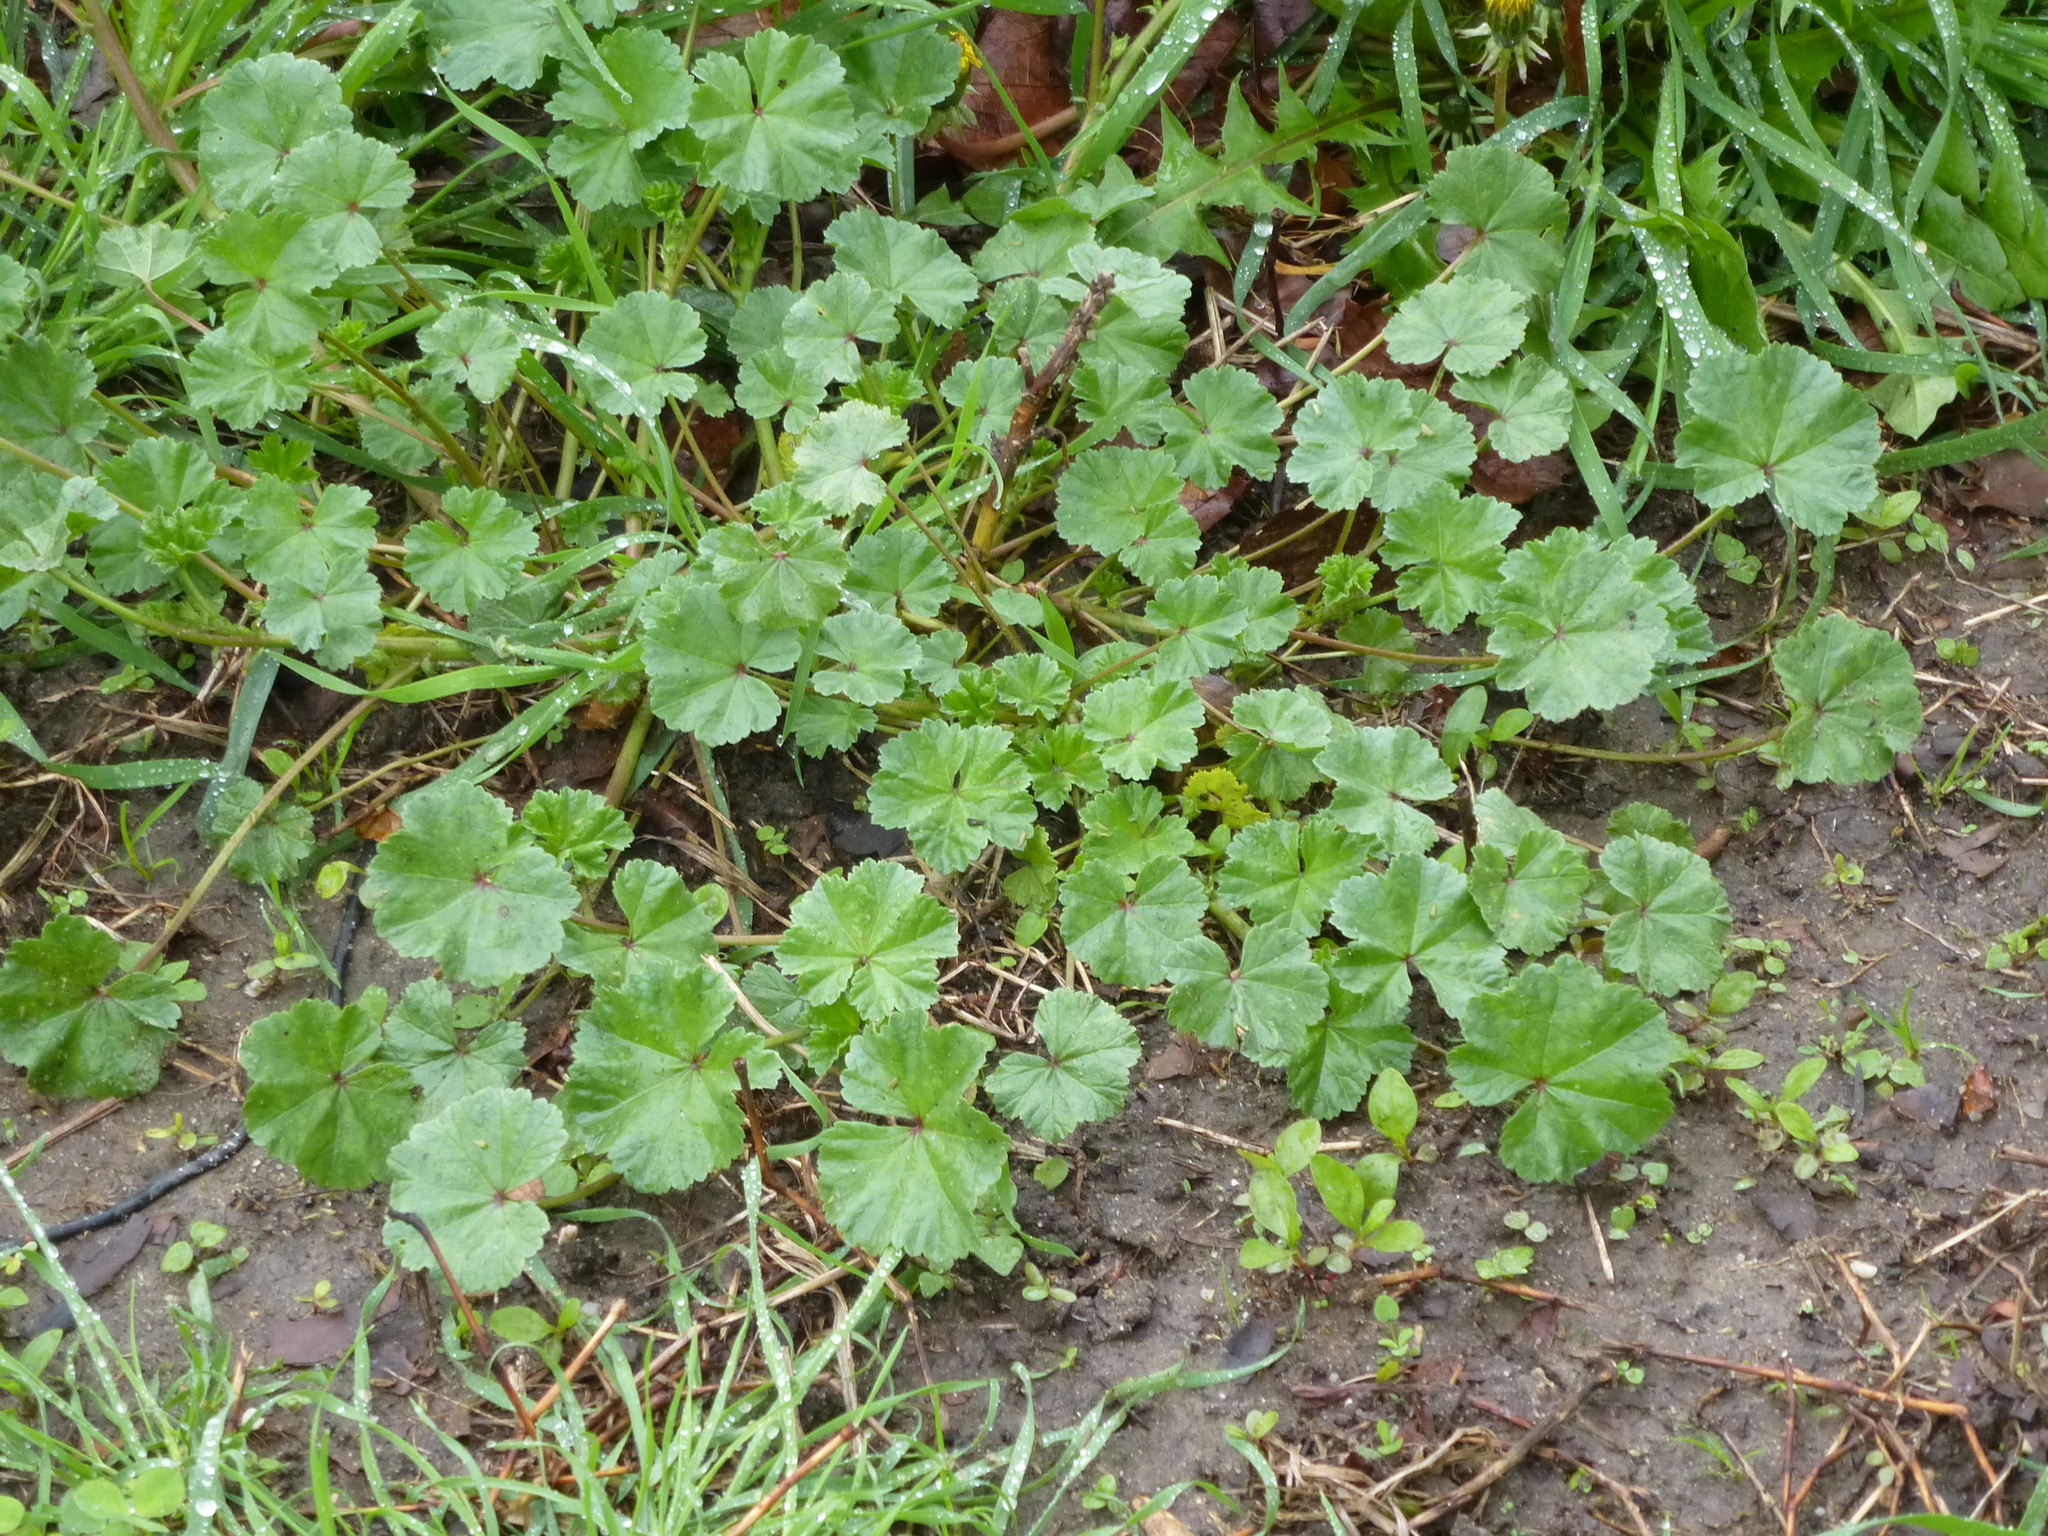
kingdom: Plantae
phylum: Tracheophyta
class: Magnoliopsida
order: Malvales
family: Malvaceae
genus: Malva
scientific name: Malva neglecta
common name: Common mallow
